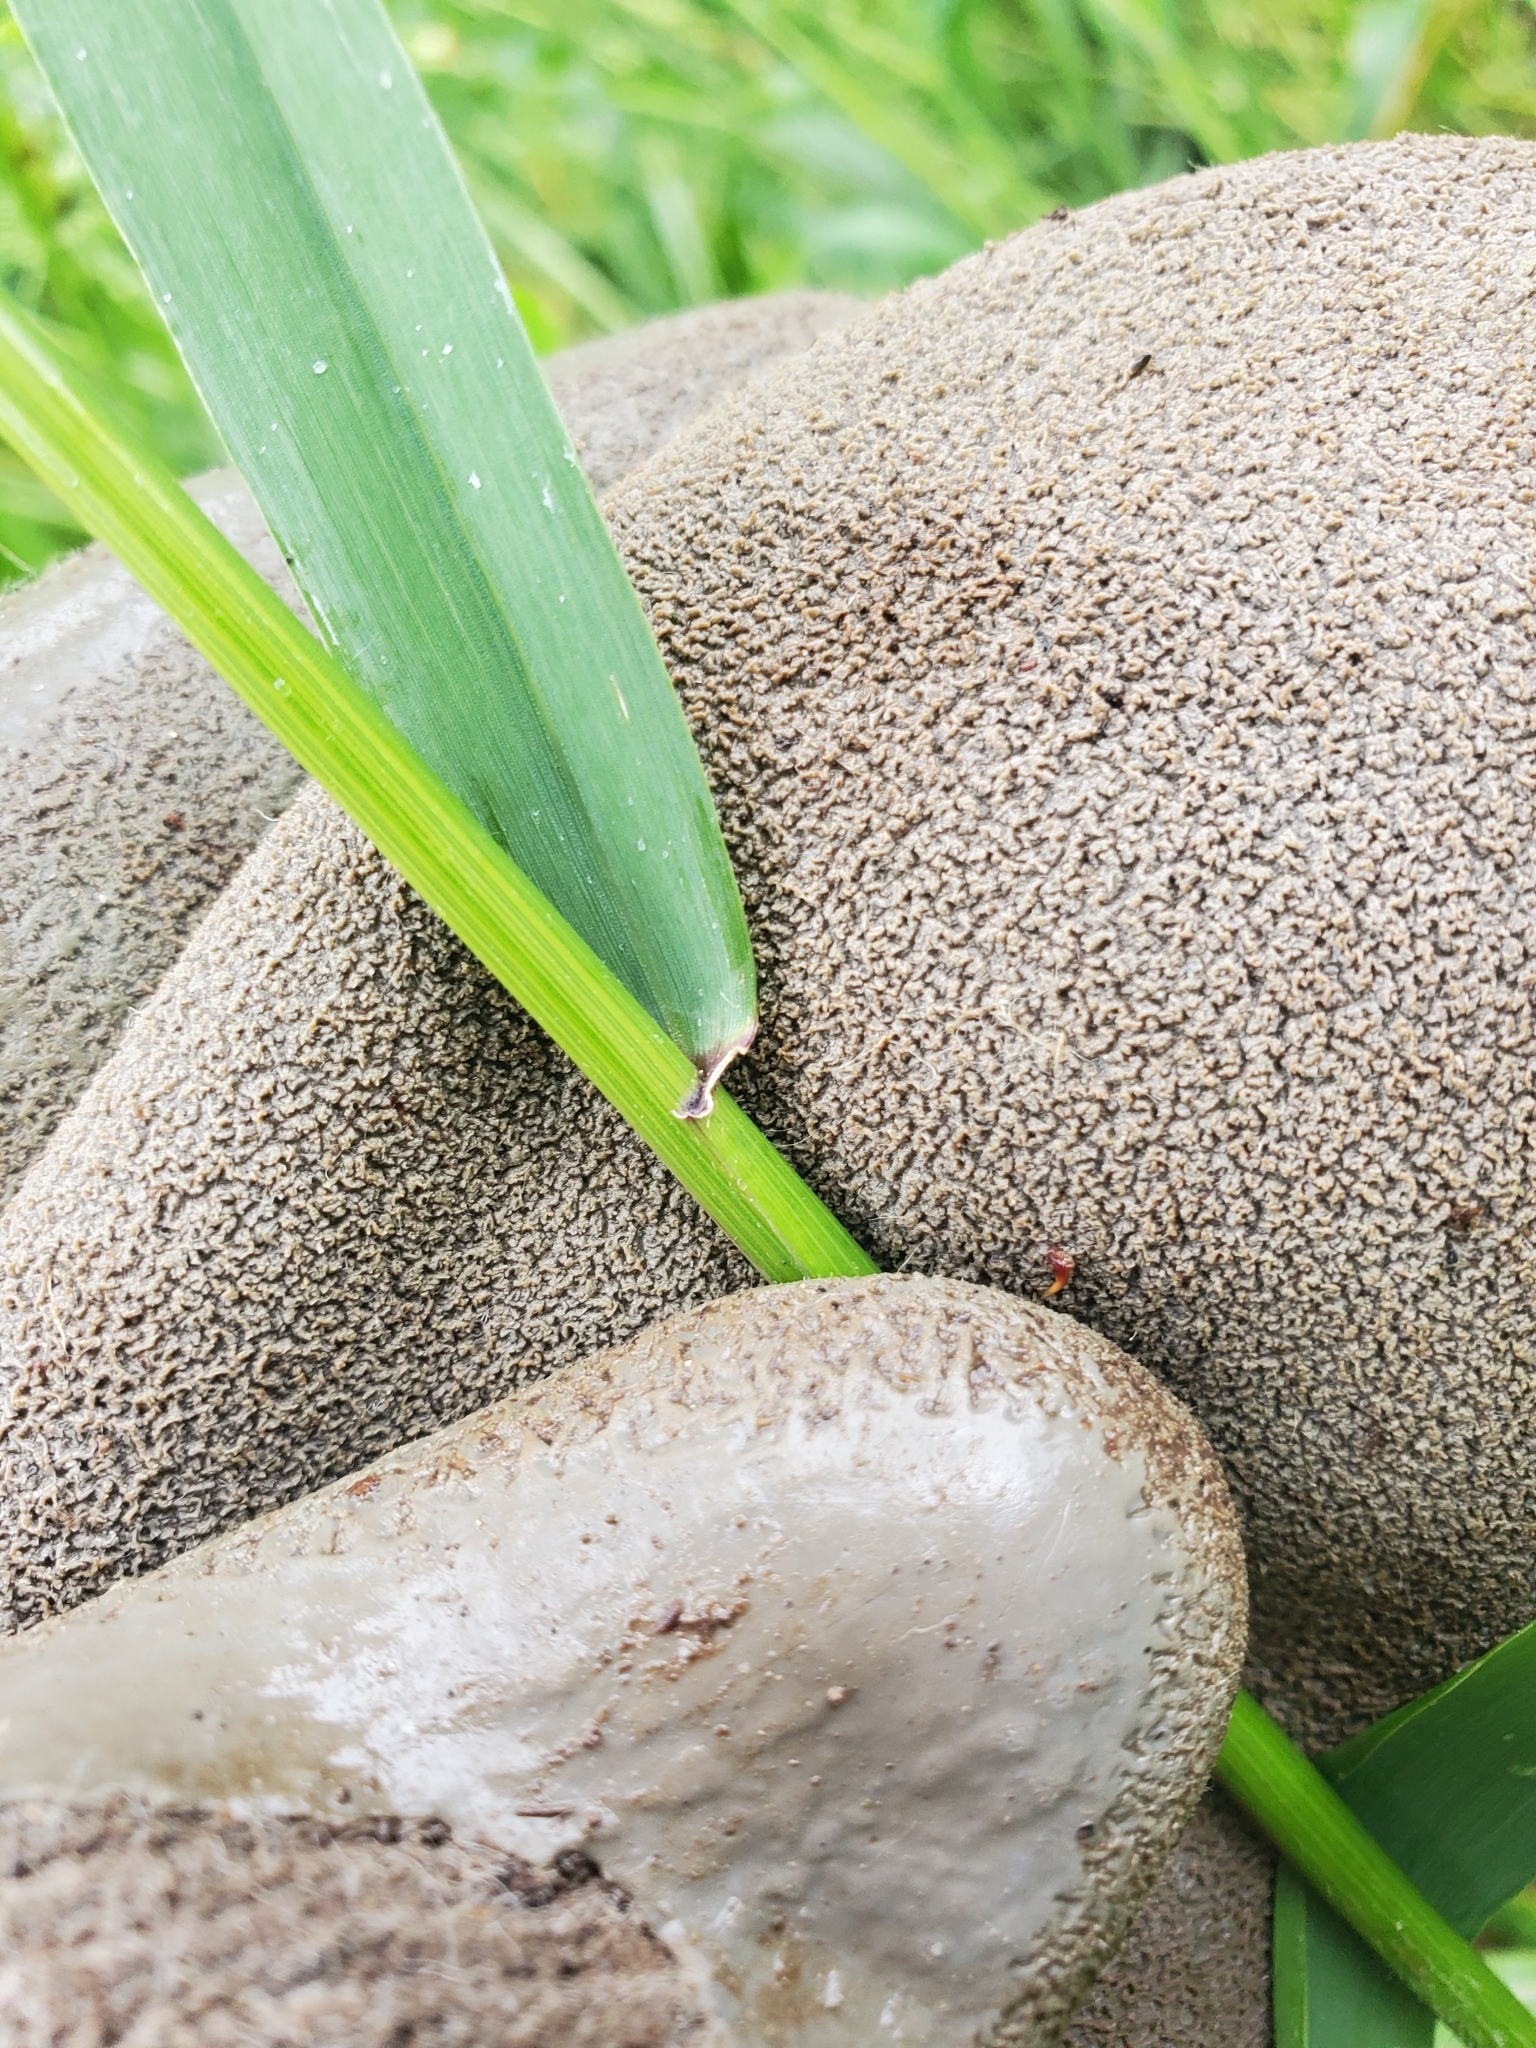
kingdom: Plantae
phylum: Tracheophyta
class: Liliopsida
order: Poales
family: Poaceae
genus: Elymus
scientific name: Elymus glaucus
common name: Blue wild rye
